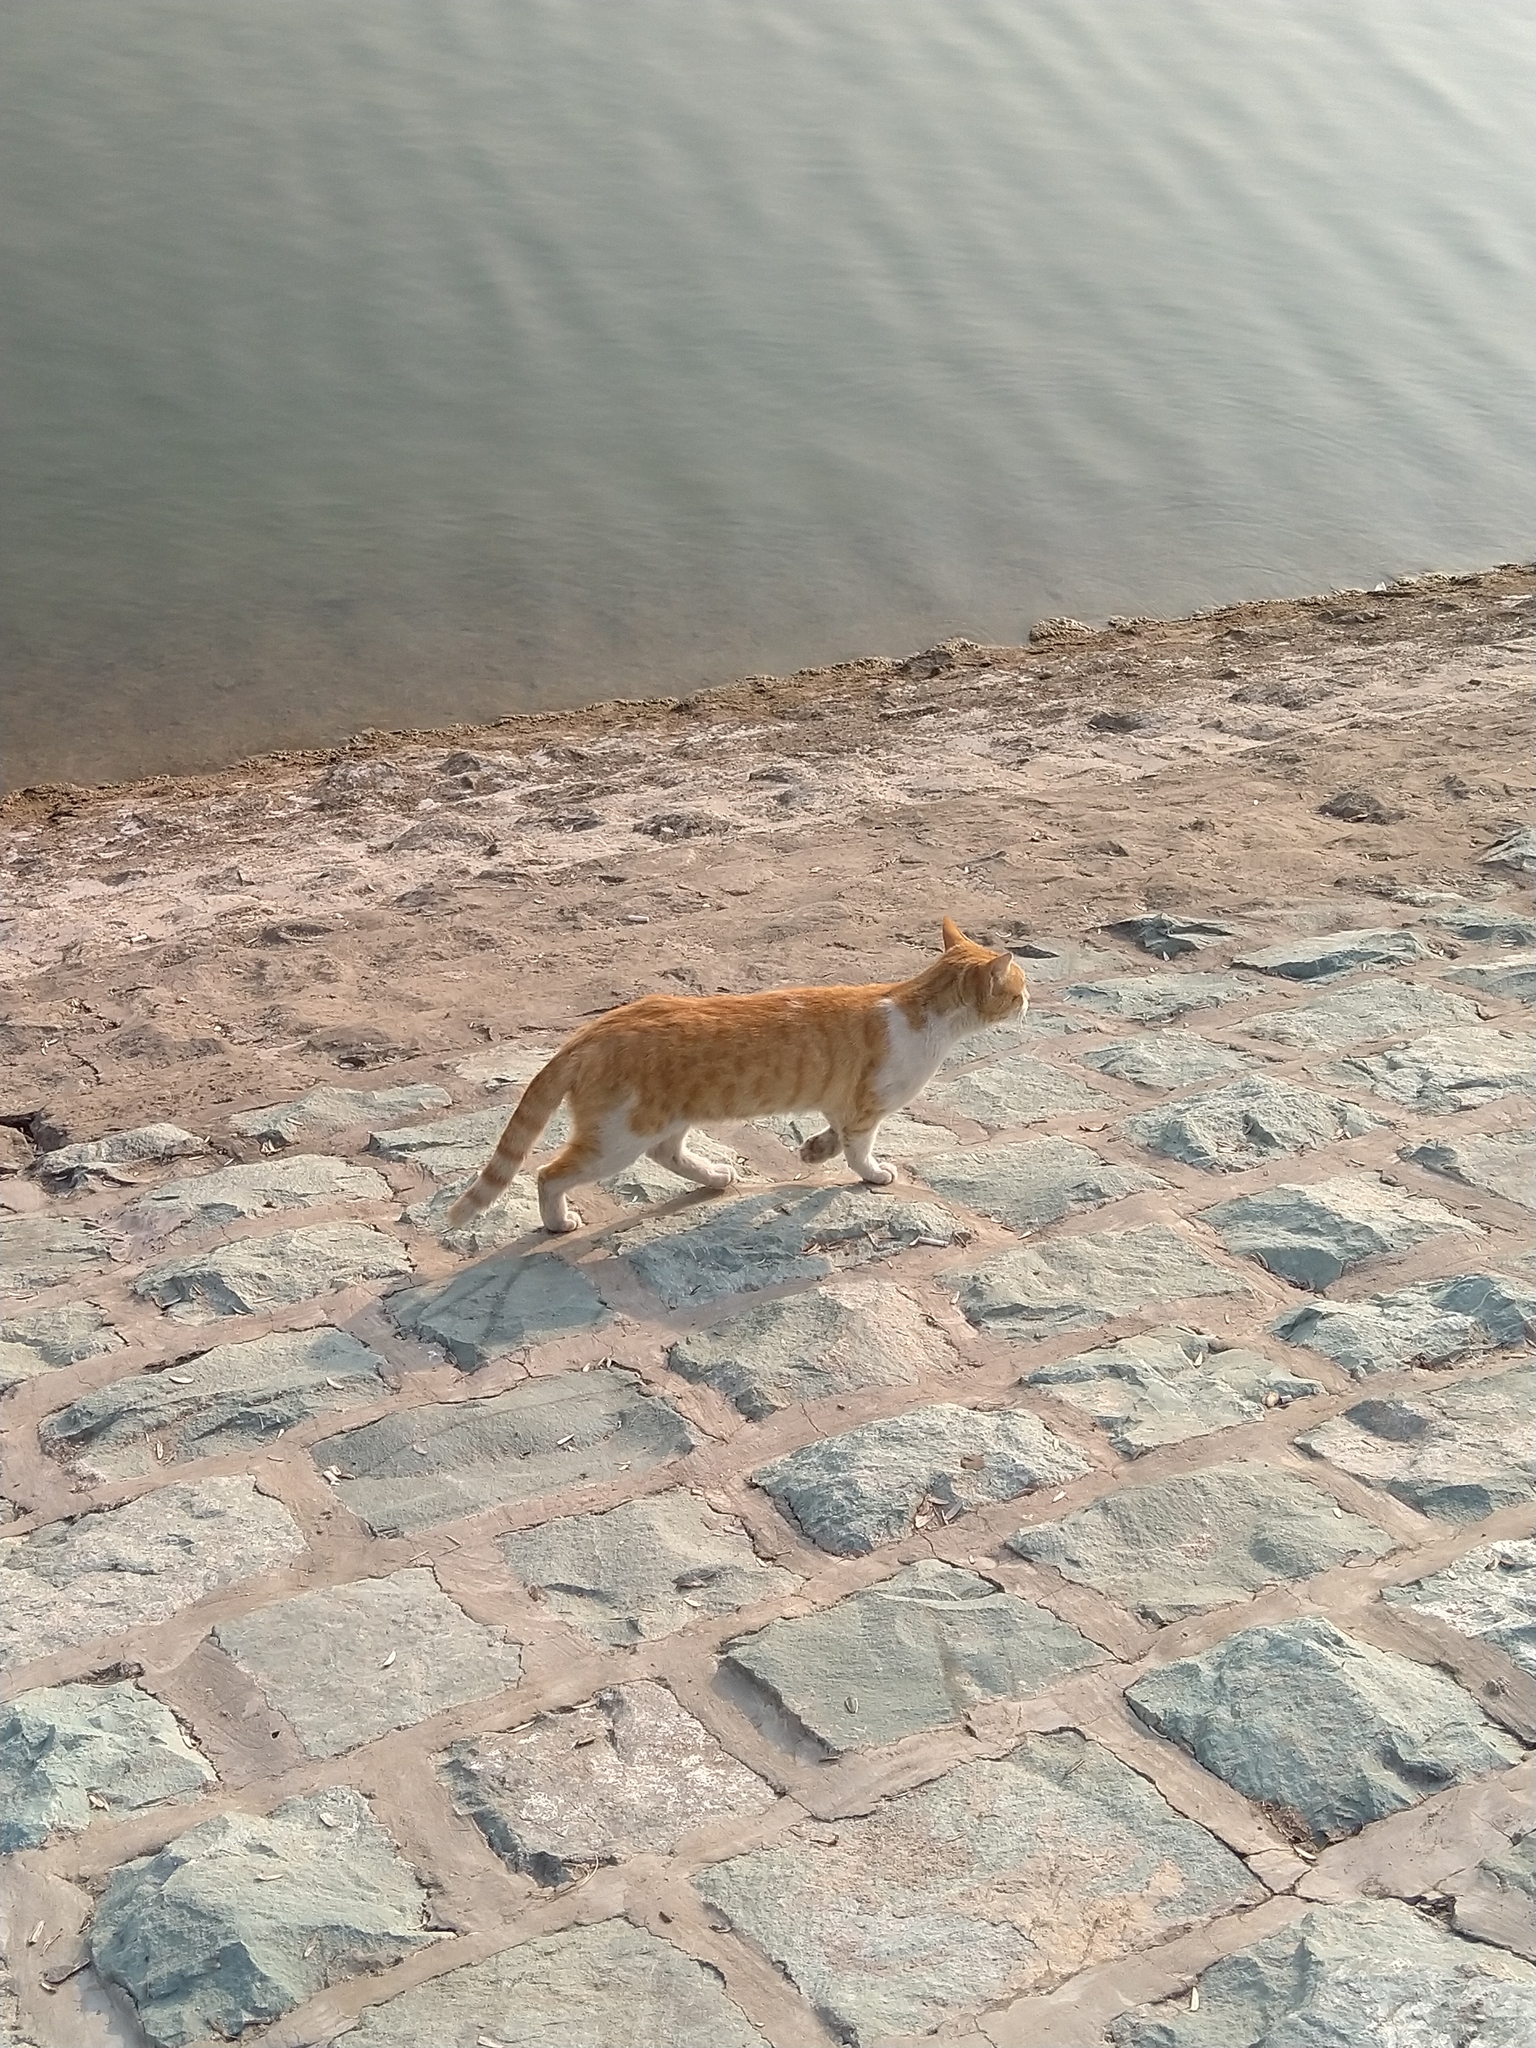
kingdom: Animalia
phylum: Chordata
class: Mammalia
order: Carnivora
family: Felidae
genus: Felis
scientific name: Felis catus
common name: Domestic cat
